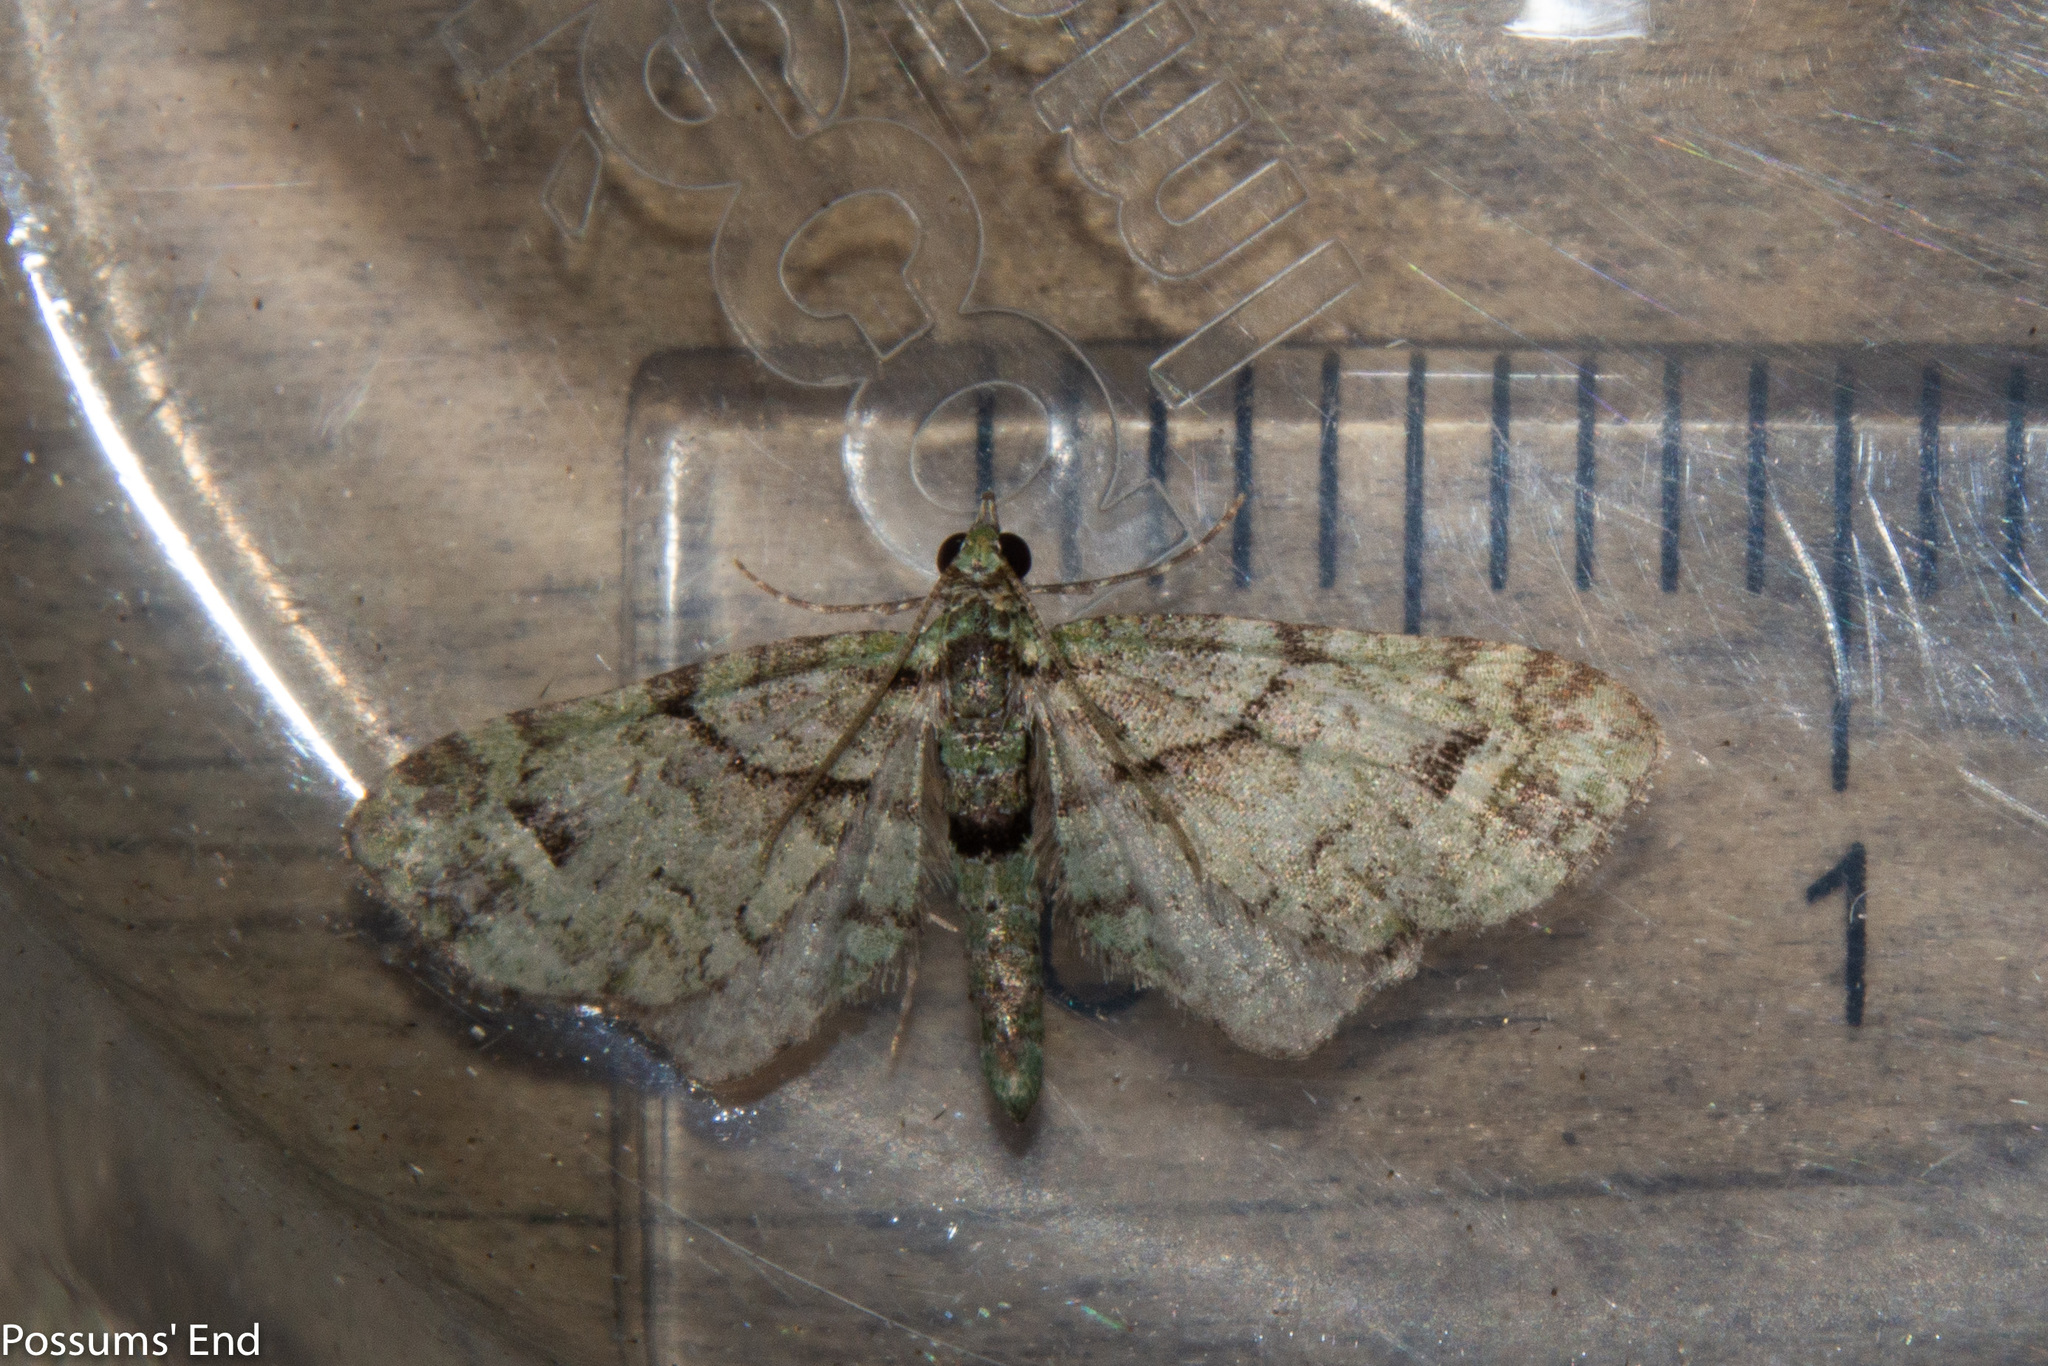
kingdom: Animalia
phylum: Arthropoda
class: Insecta
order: Lepidoptera
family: Geometridae
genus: Idaea
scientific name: Idaea mutanda
